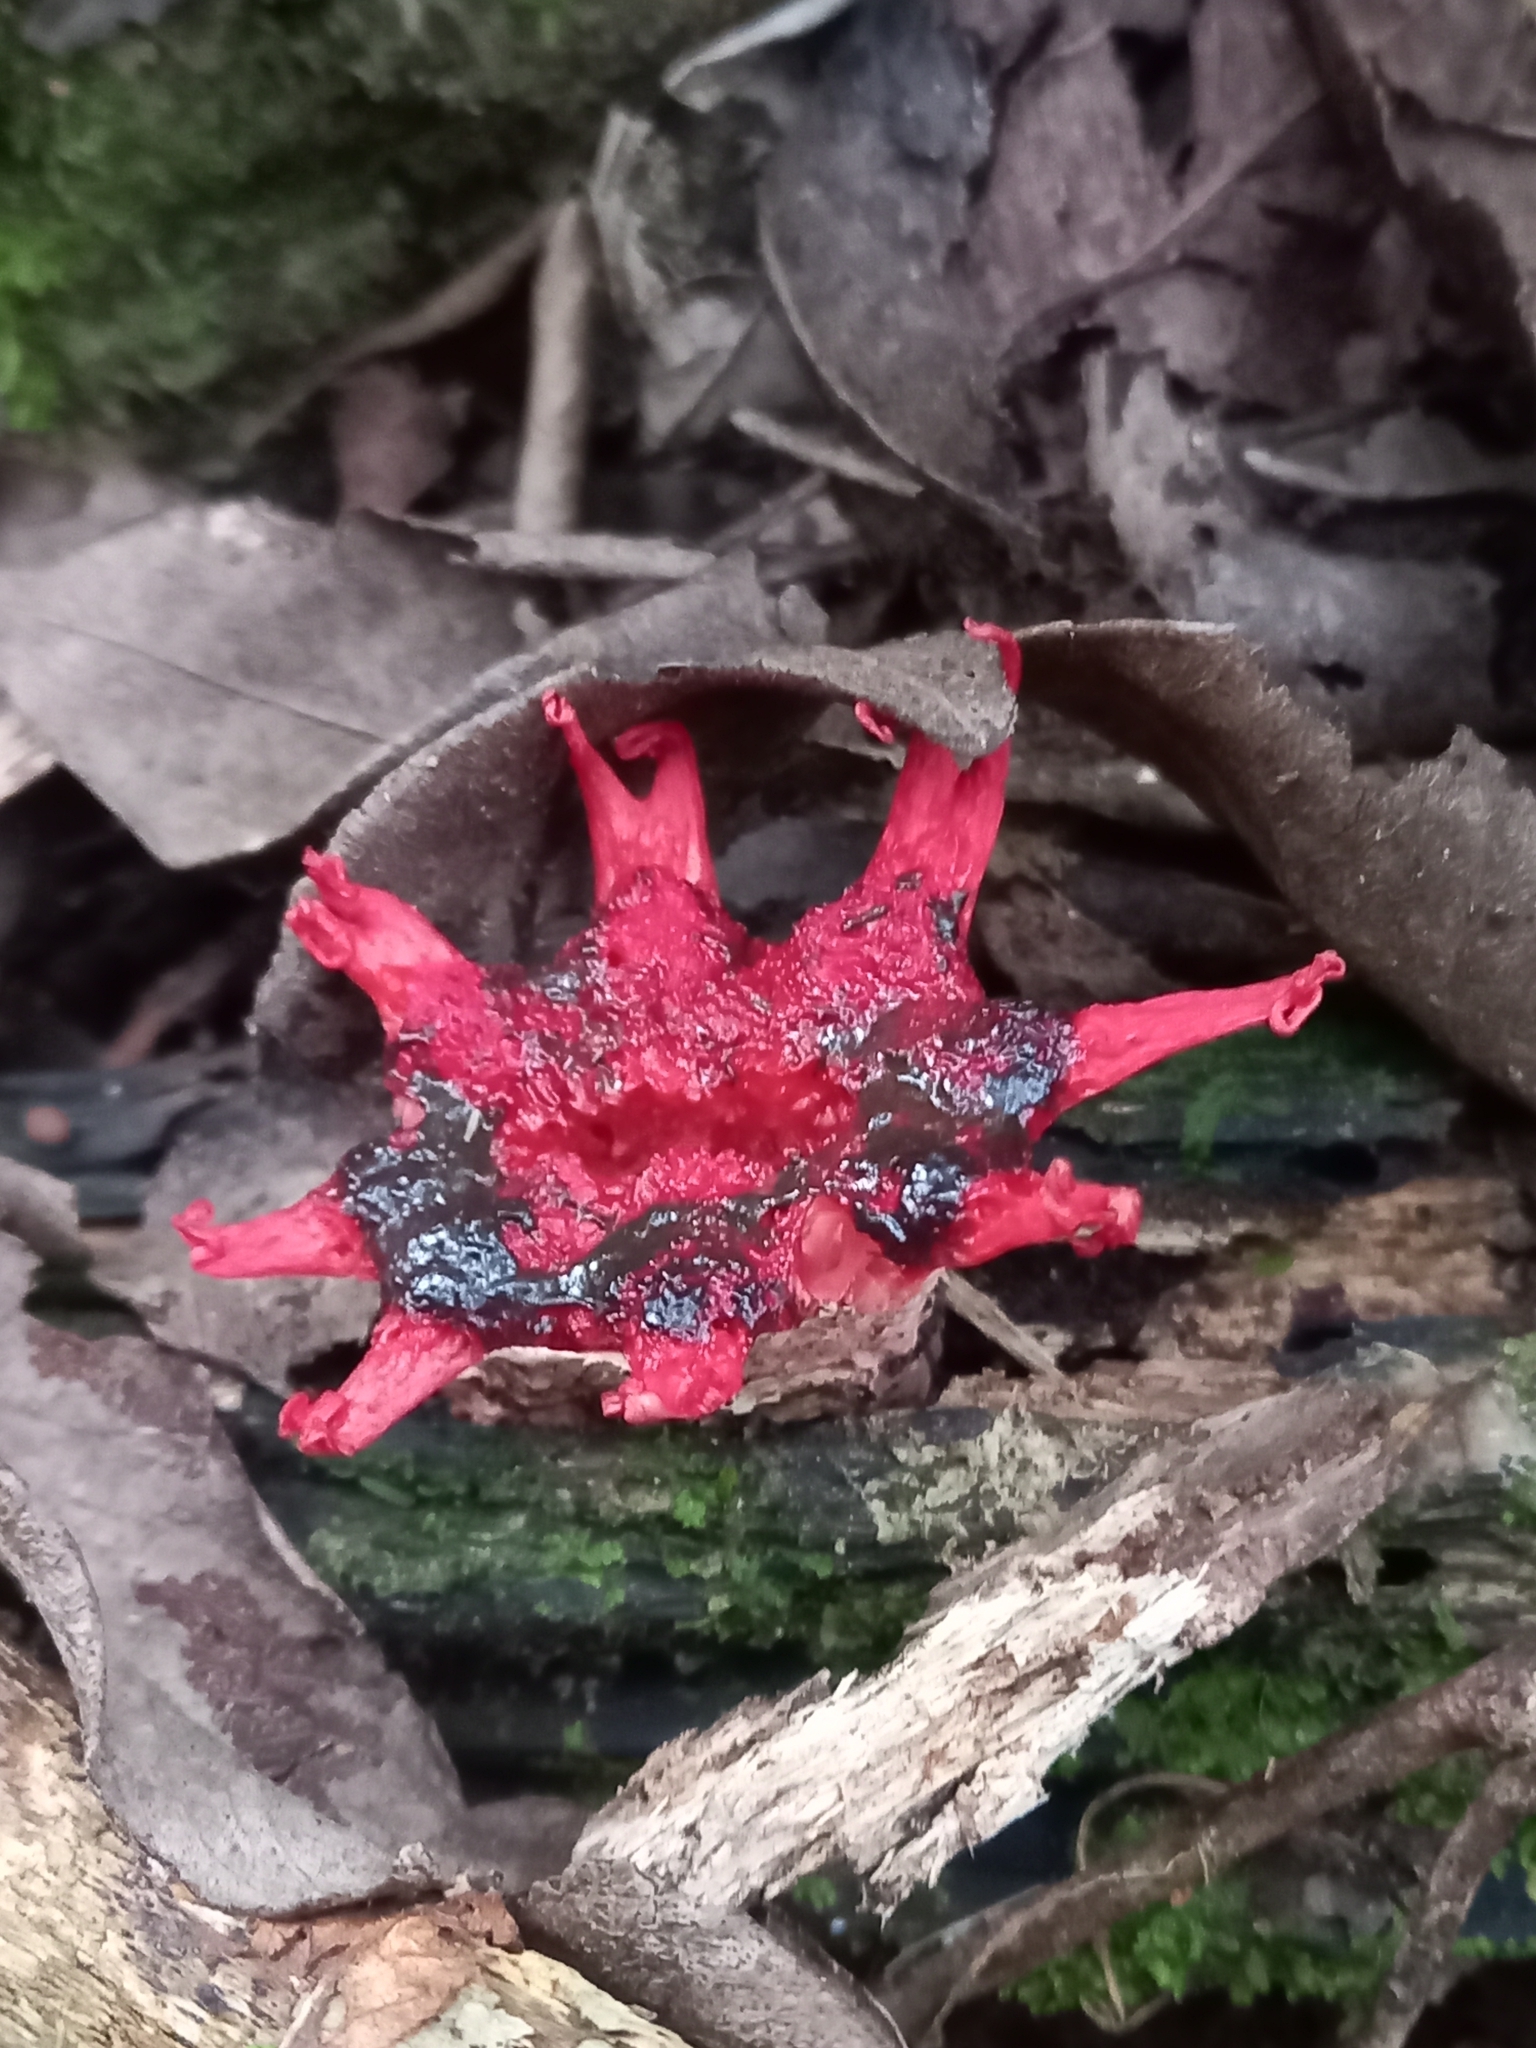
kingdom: Fungi
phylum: Basidiomycota
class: Agaricomycetes
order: Phallales
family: Phallaceae
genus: Aseroe
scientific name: Aseroe rubra
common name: Starfish fungus
